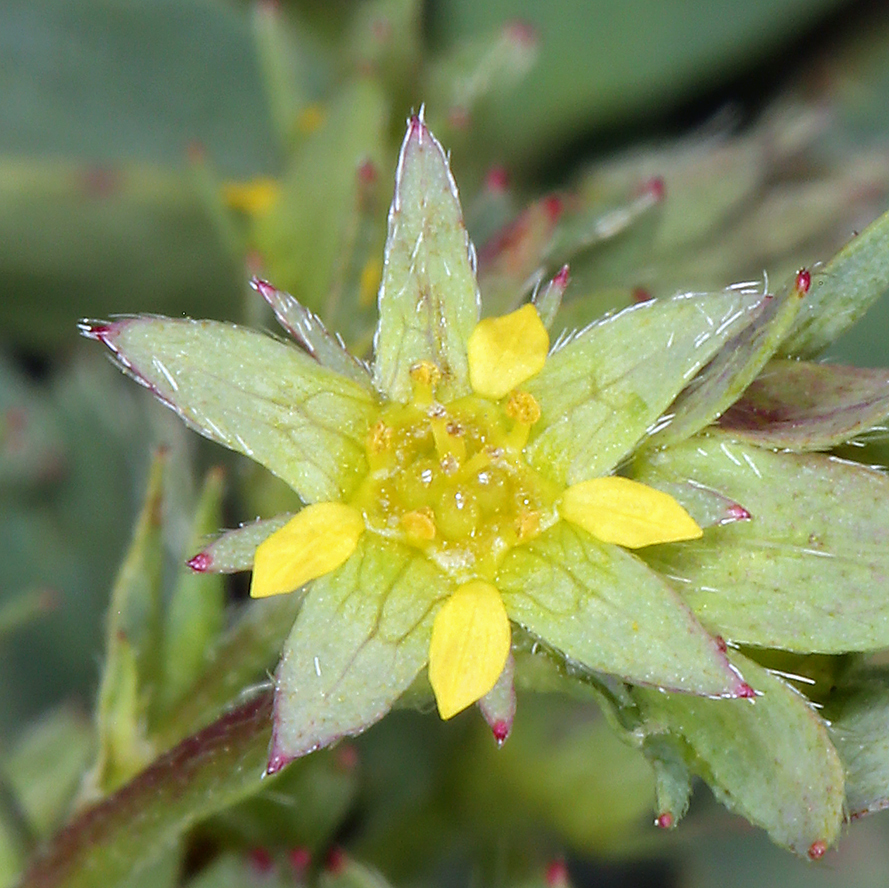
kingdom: Plantae
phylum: Tracheophyta
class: Magnoliopsida
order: Rosales
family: Rosaceae
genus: Sibbaldia
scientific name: Sibbaldia procumbens
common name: Creeping sibbaldia
